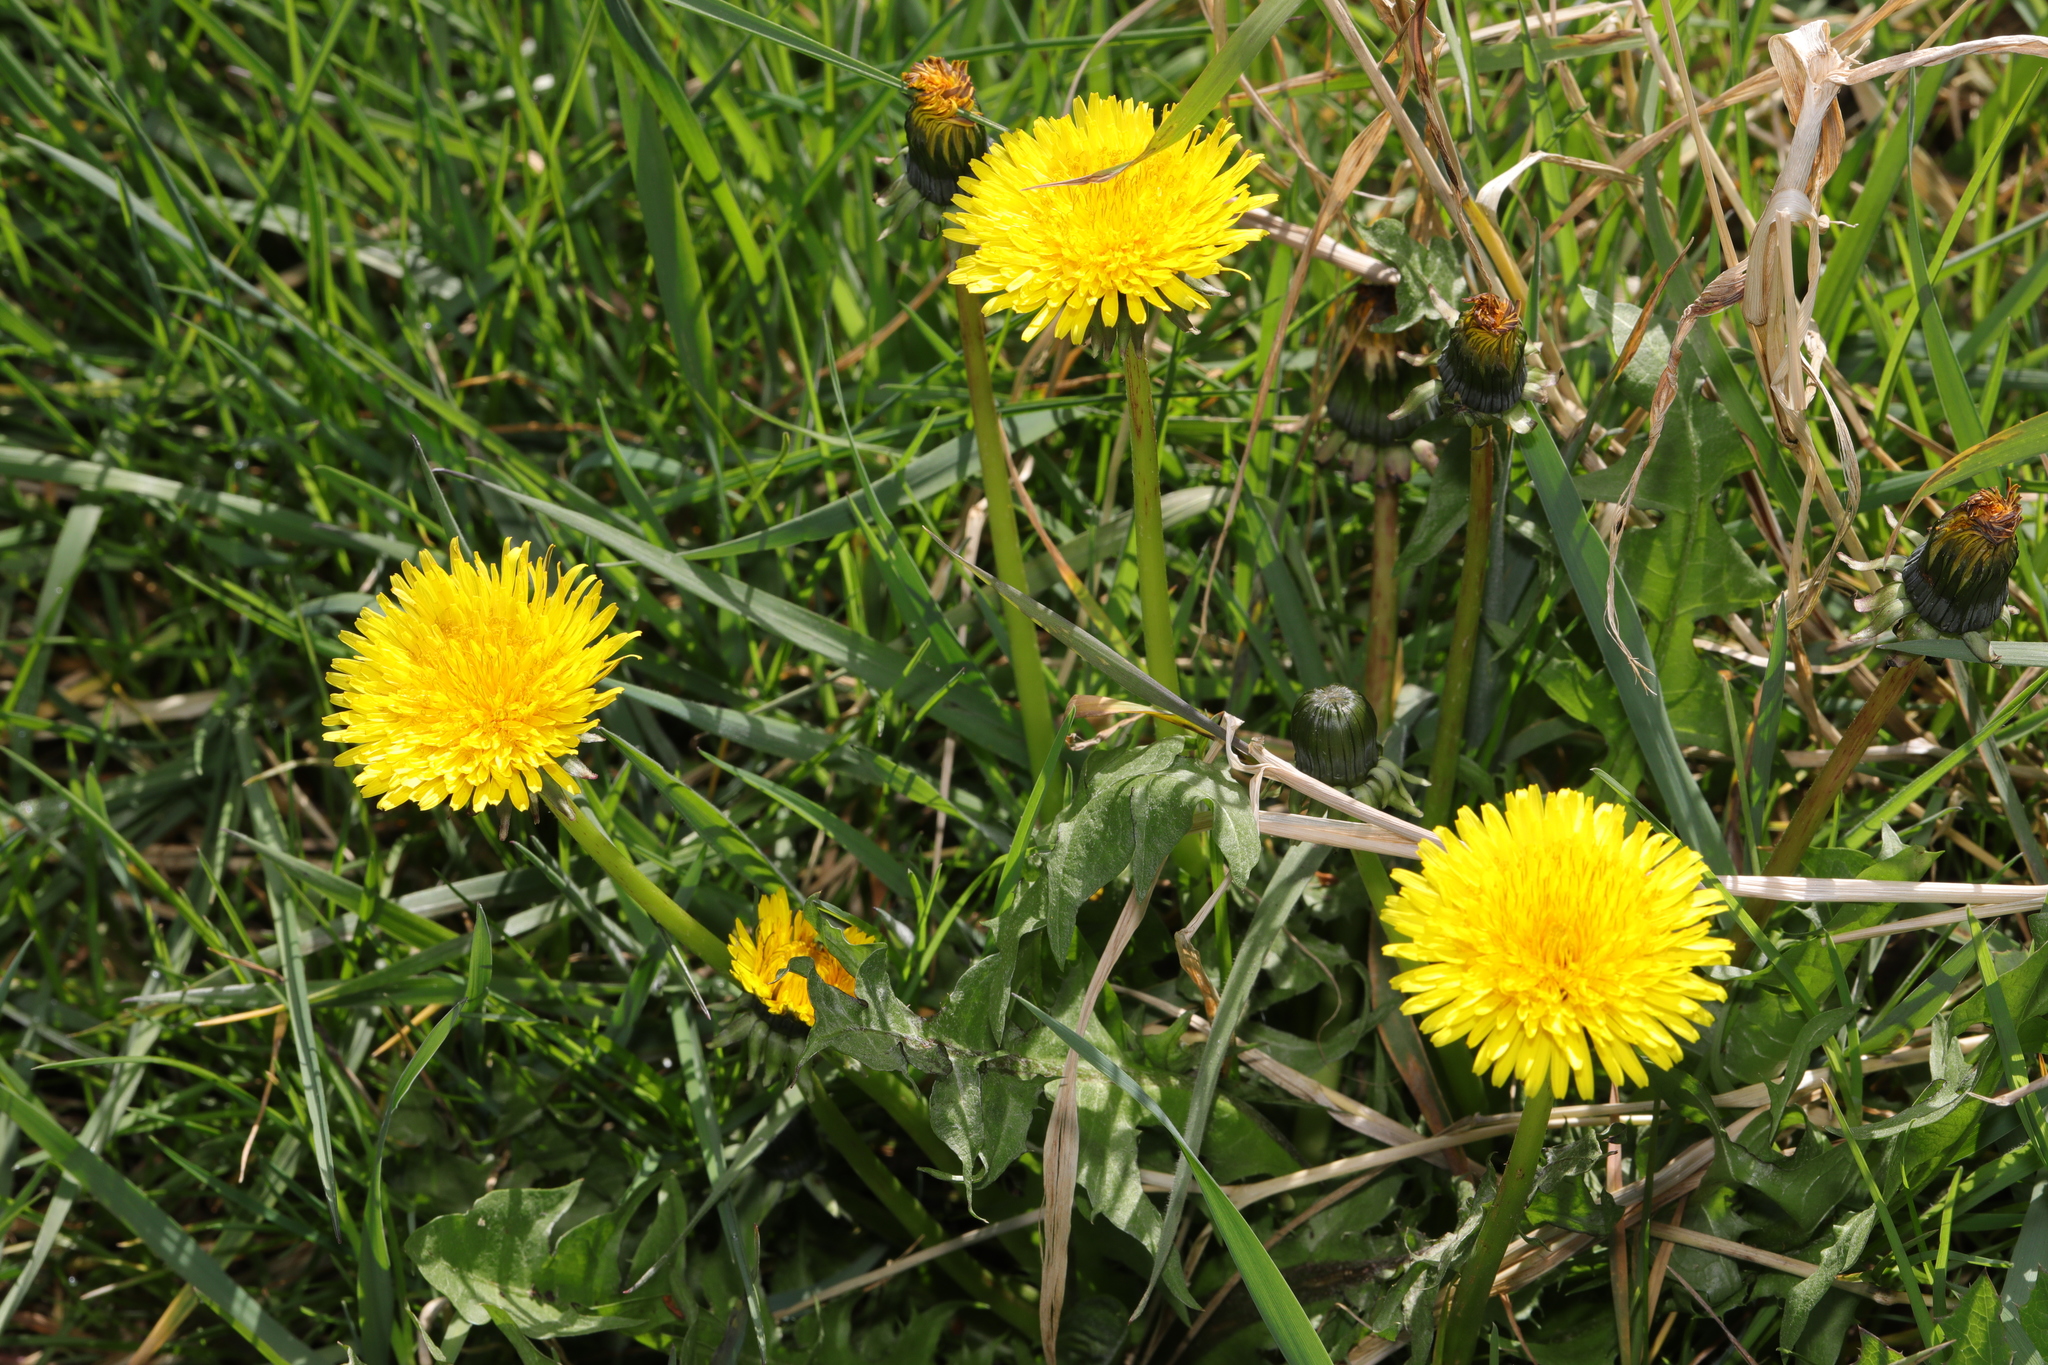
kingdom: Plantae
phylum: Tracheophyta
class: Magnoliopsida
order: Asterales
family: Asteraceae
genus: Taraxacum
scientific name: Taraxacum officinale
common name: Common dandelion
